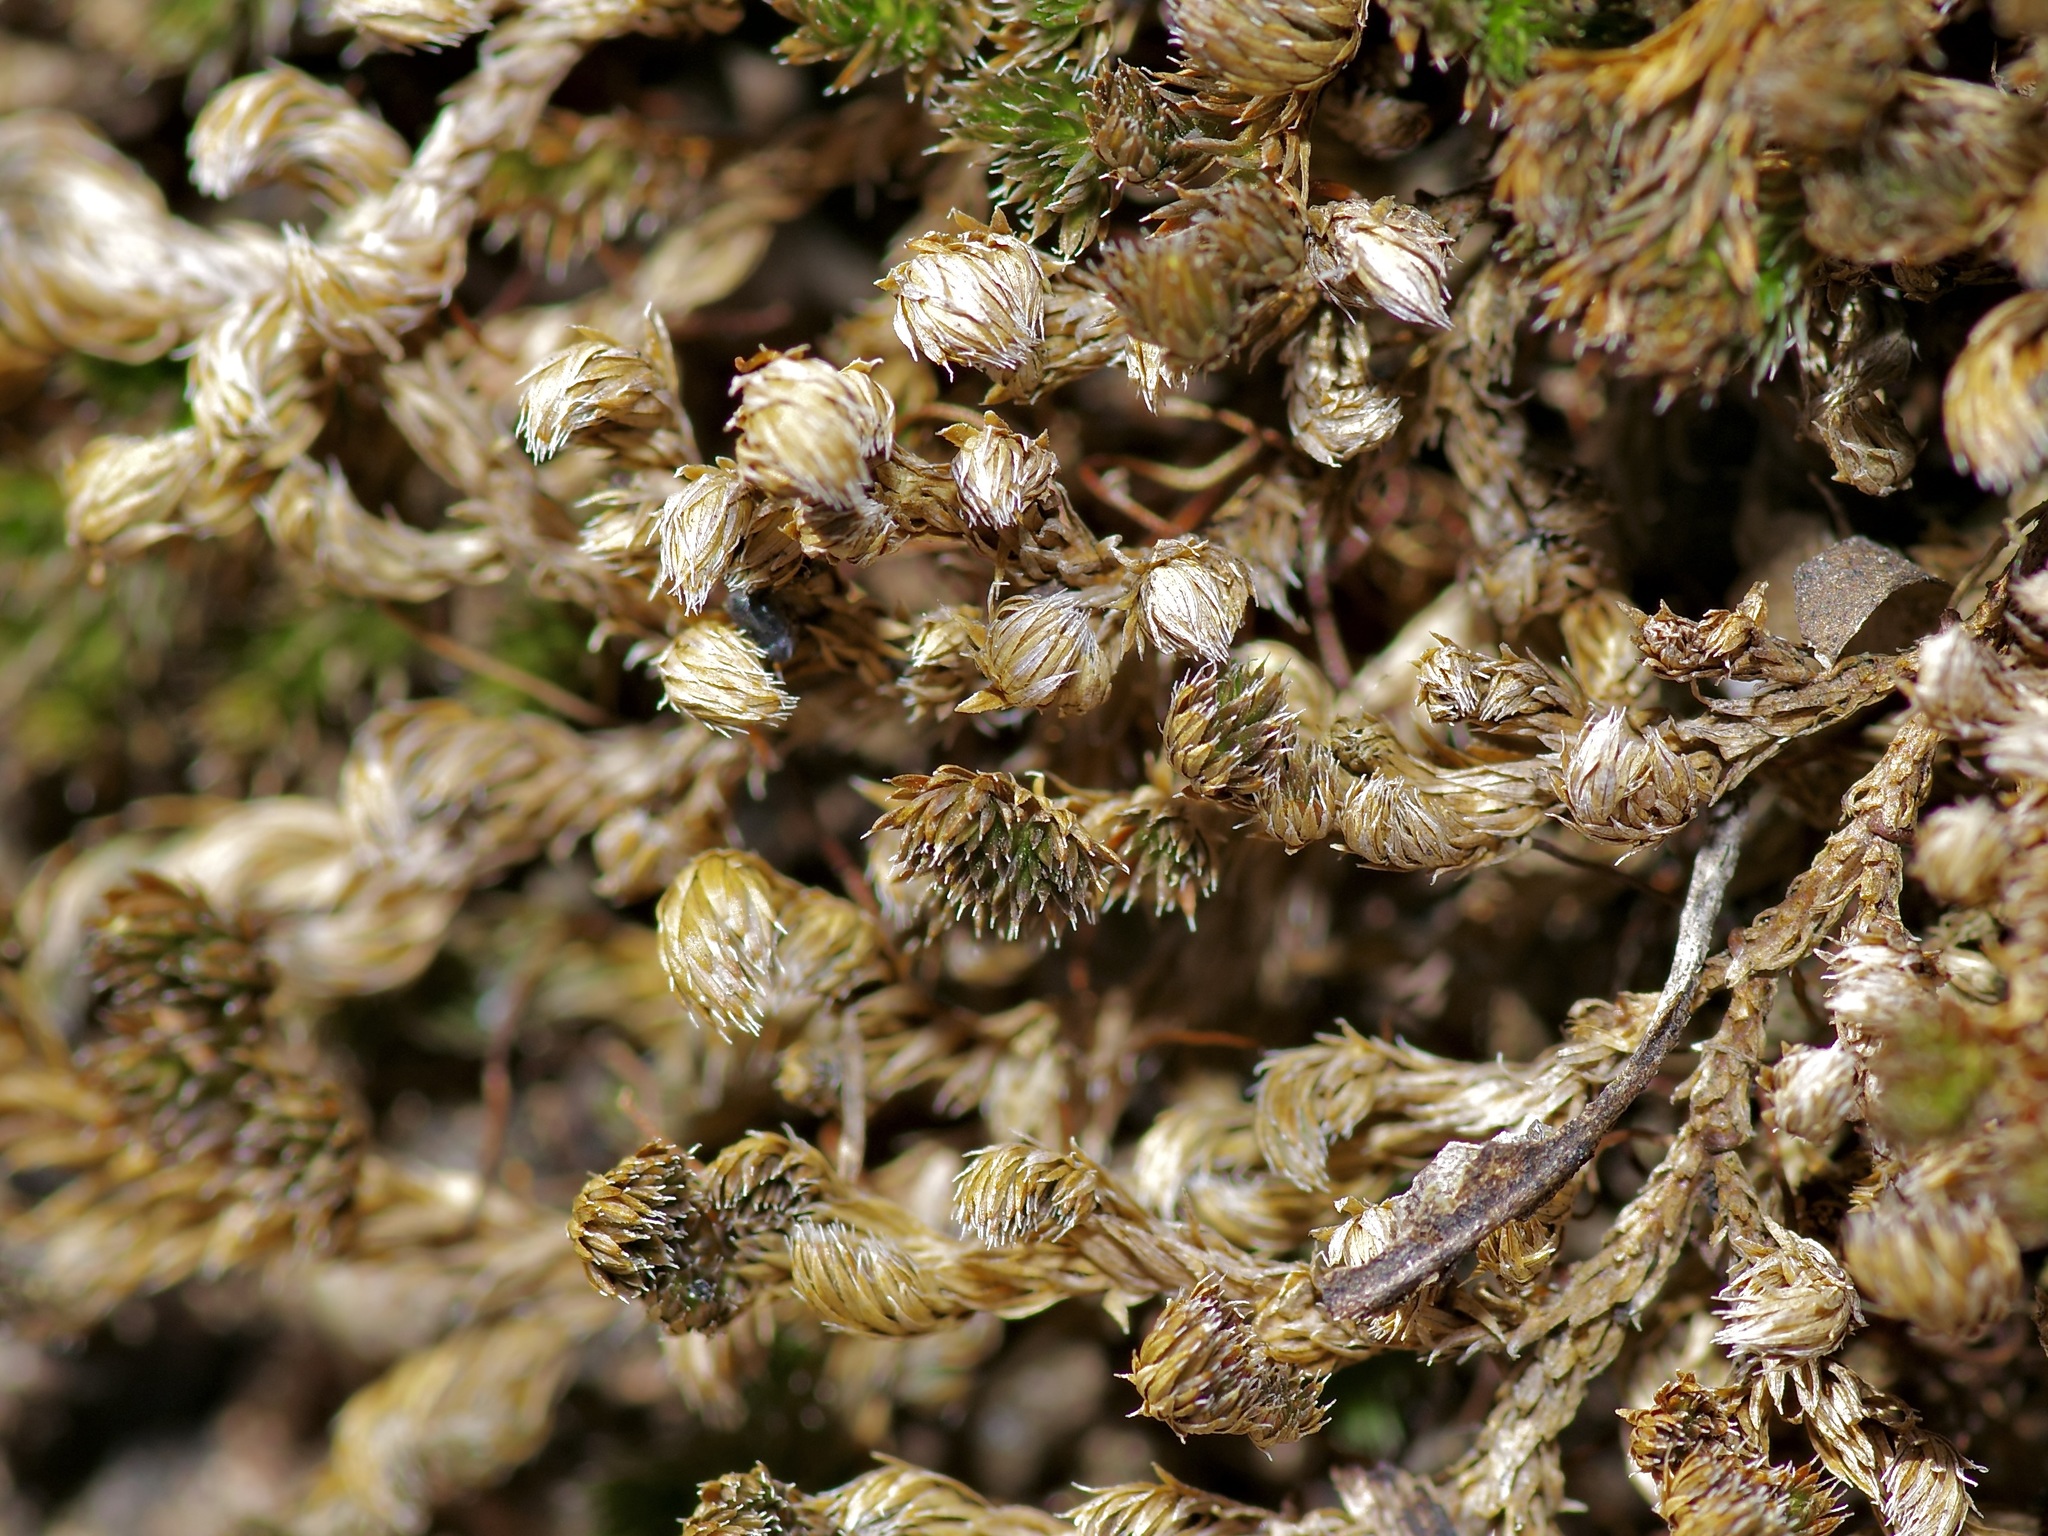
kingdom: Plantae
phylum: Tracheophyta
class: Lycopodiopsida
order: Selaginellales
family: Selaginellaceae
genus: Selaginella
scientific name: Selaginella peruviana
